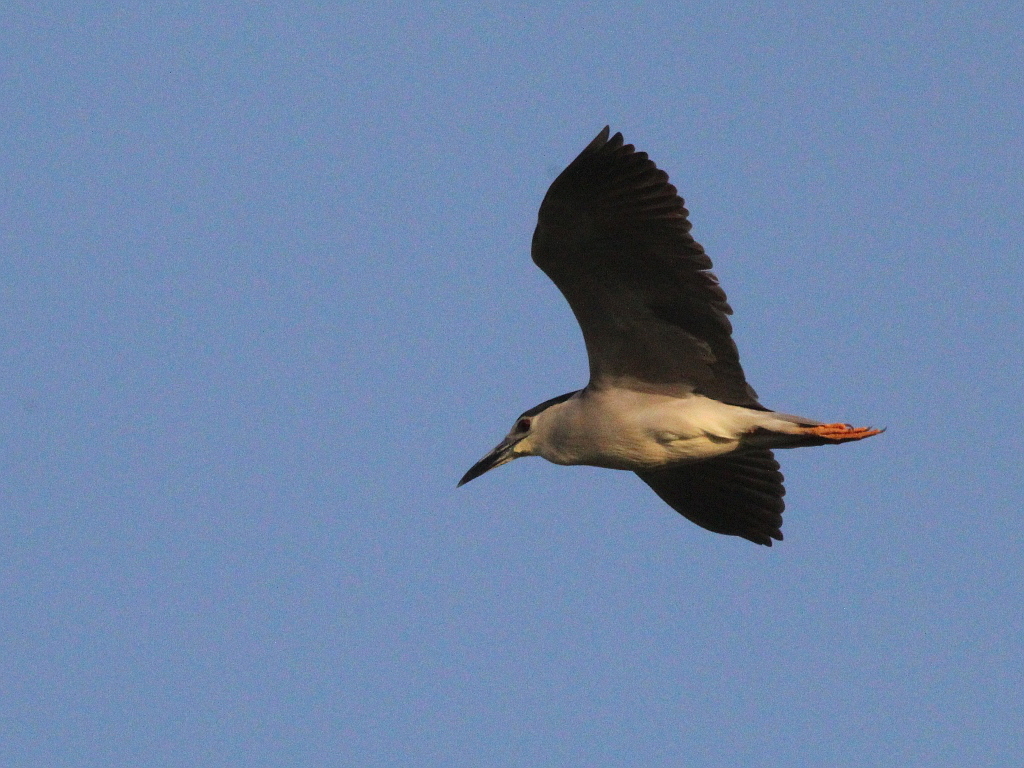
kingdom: Animalia
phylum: Chordata
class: Aves
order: Pelecaniformes
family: Ardeidae
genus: Nycticorax
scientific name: Nycticorax nycticorax
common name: Black-crowned night heron
